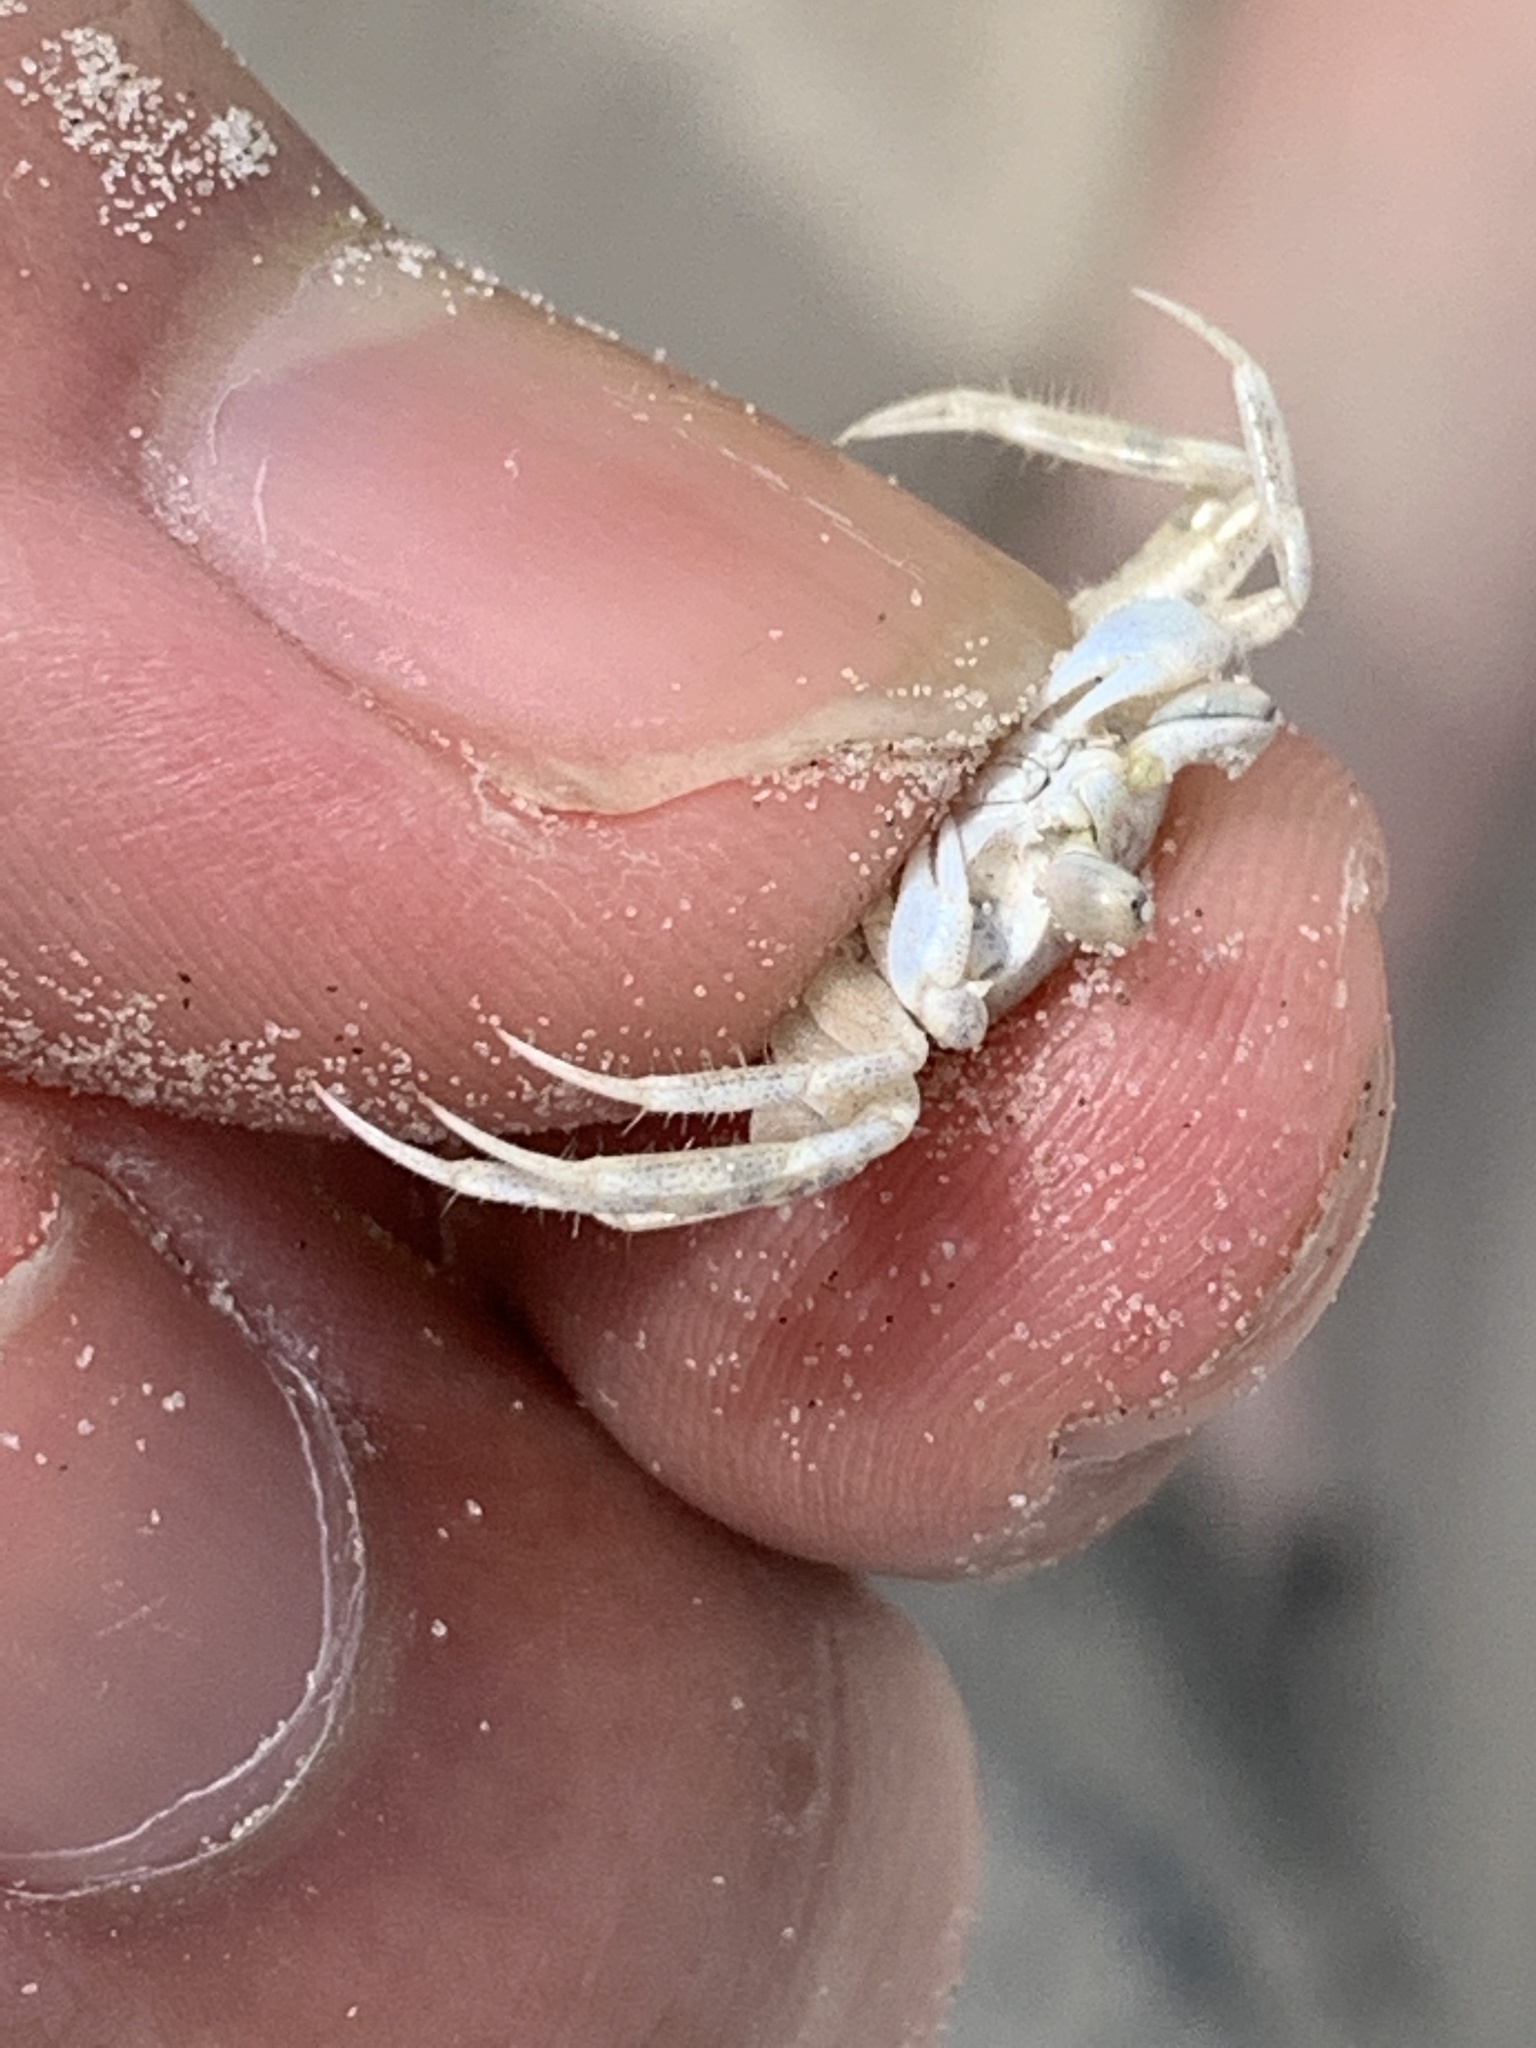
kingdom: Animalia
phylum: Arthropoda
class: Malacostraca
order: Decapoda
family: Ocypodidae
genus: Ocypode
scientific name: Ocypode quadrata
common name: Ghost crab
